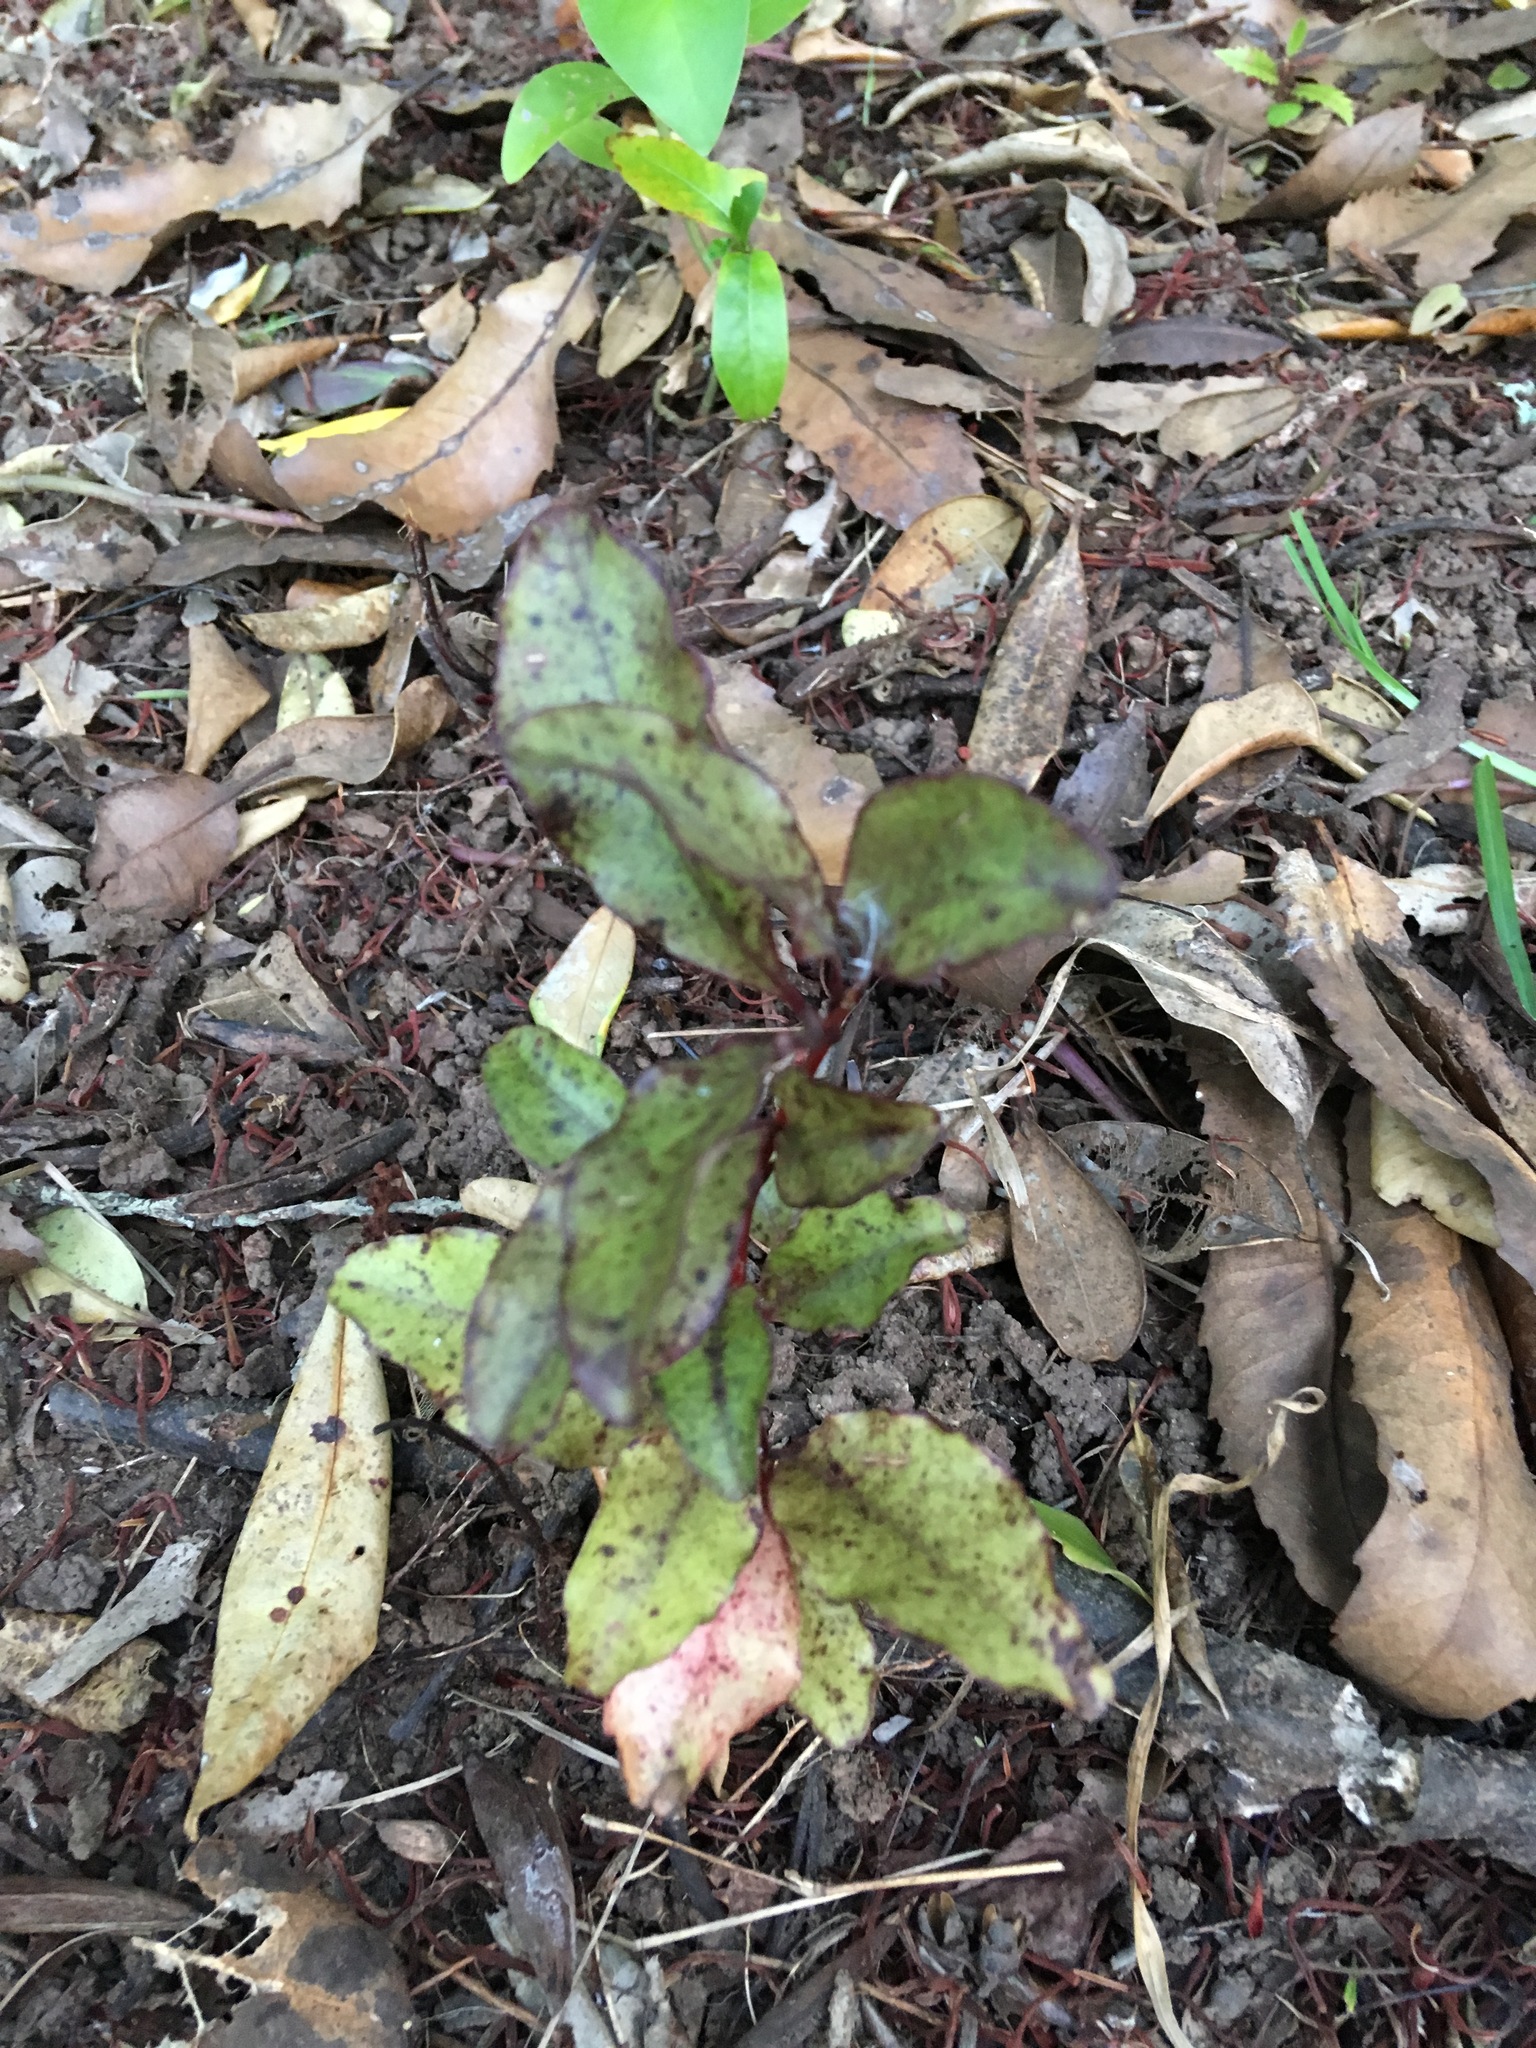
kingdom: Plantae
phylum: Tracheophyta
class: Magnoliopsida
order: Ericales
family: Primulaceae
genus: Myrsine
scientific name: Myrsine australis
